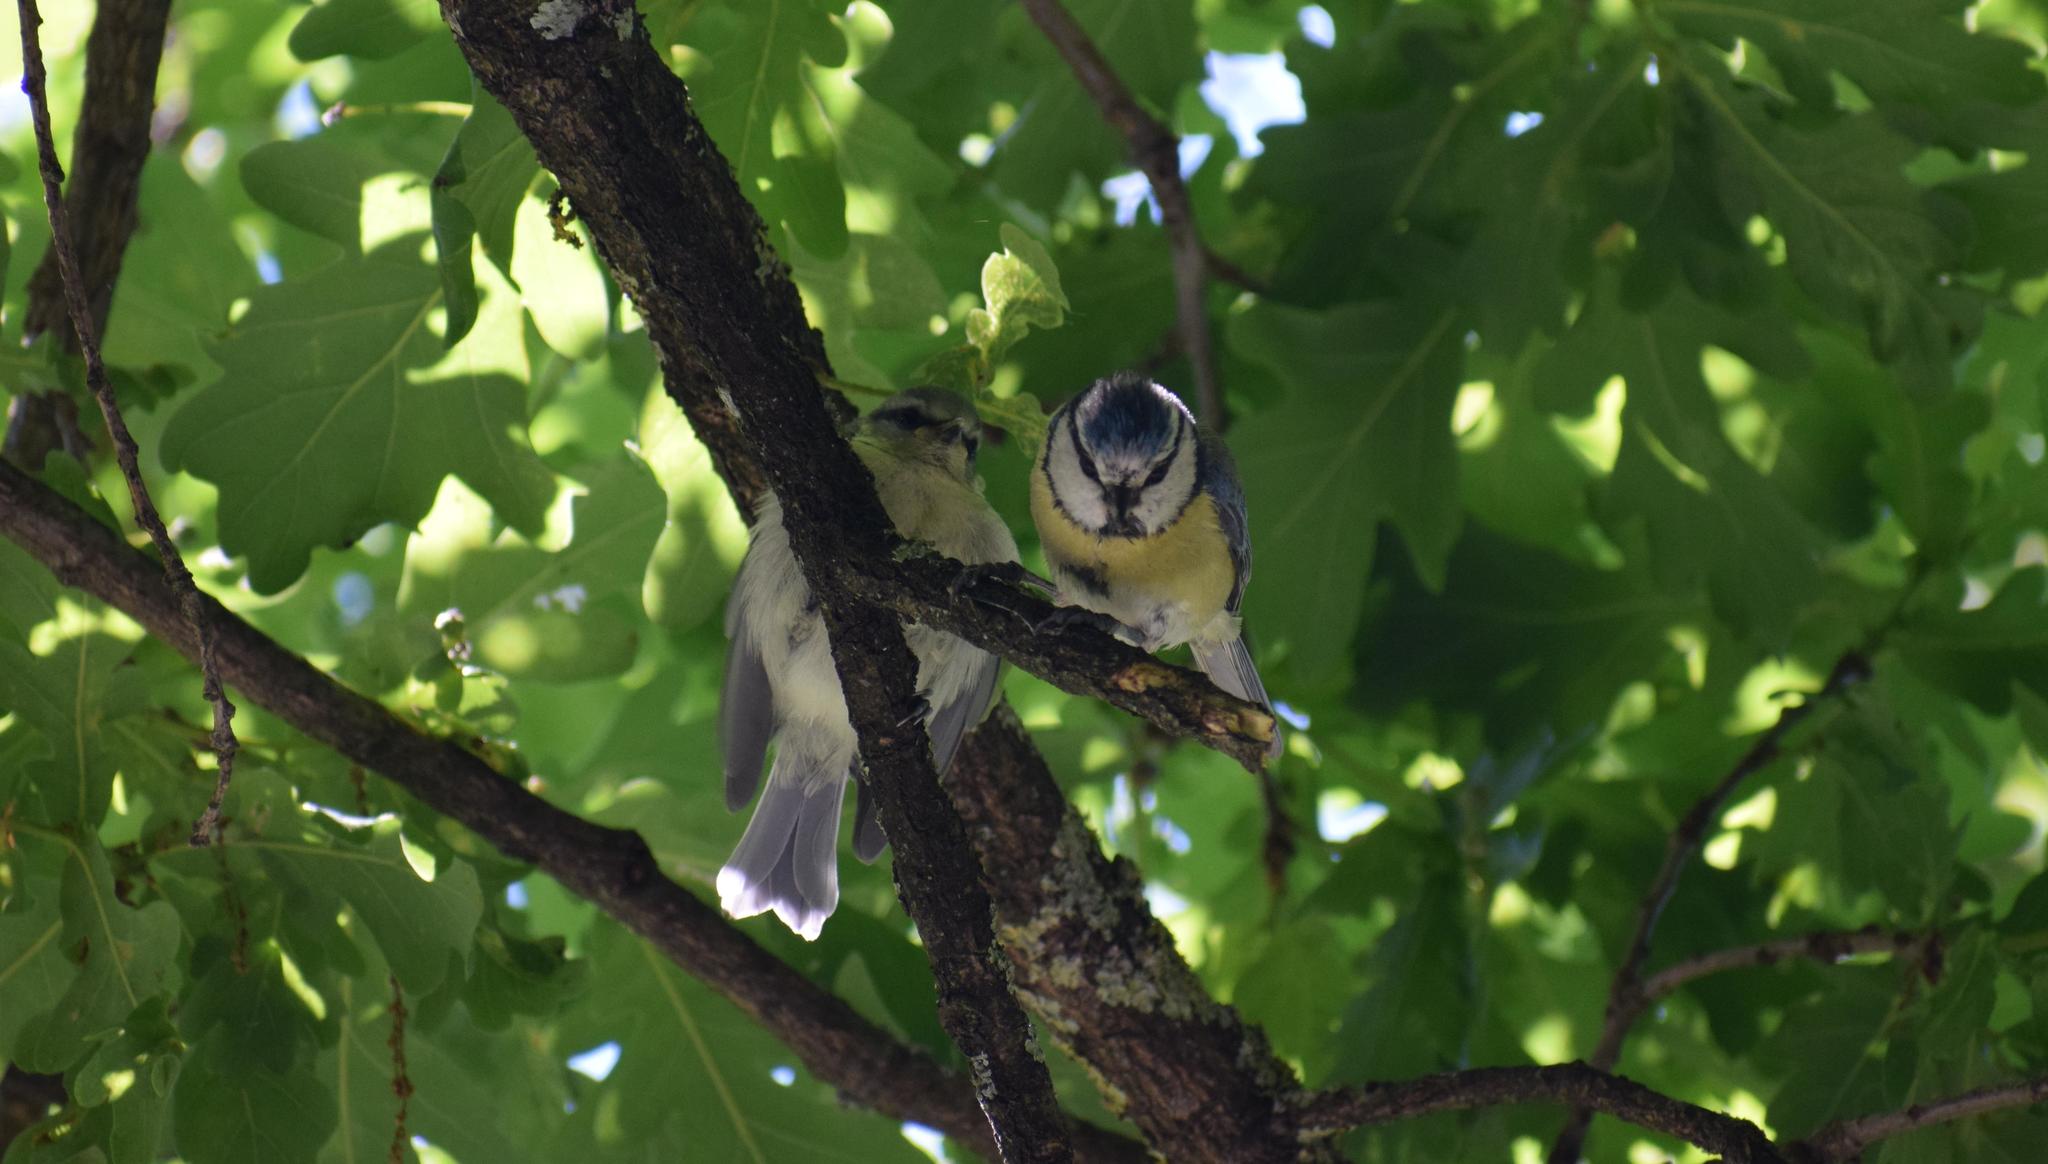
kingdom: Animalia
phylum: Chordata
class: Aves
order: Passeriformes
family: Paridae
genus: Cyanistes
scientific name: Cyanistes caeruleus
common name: Eurasian blue tit
